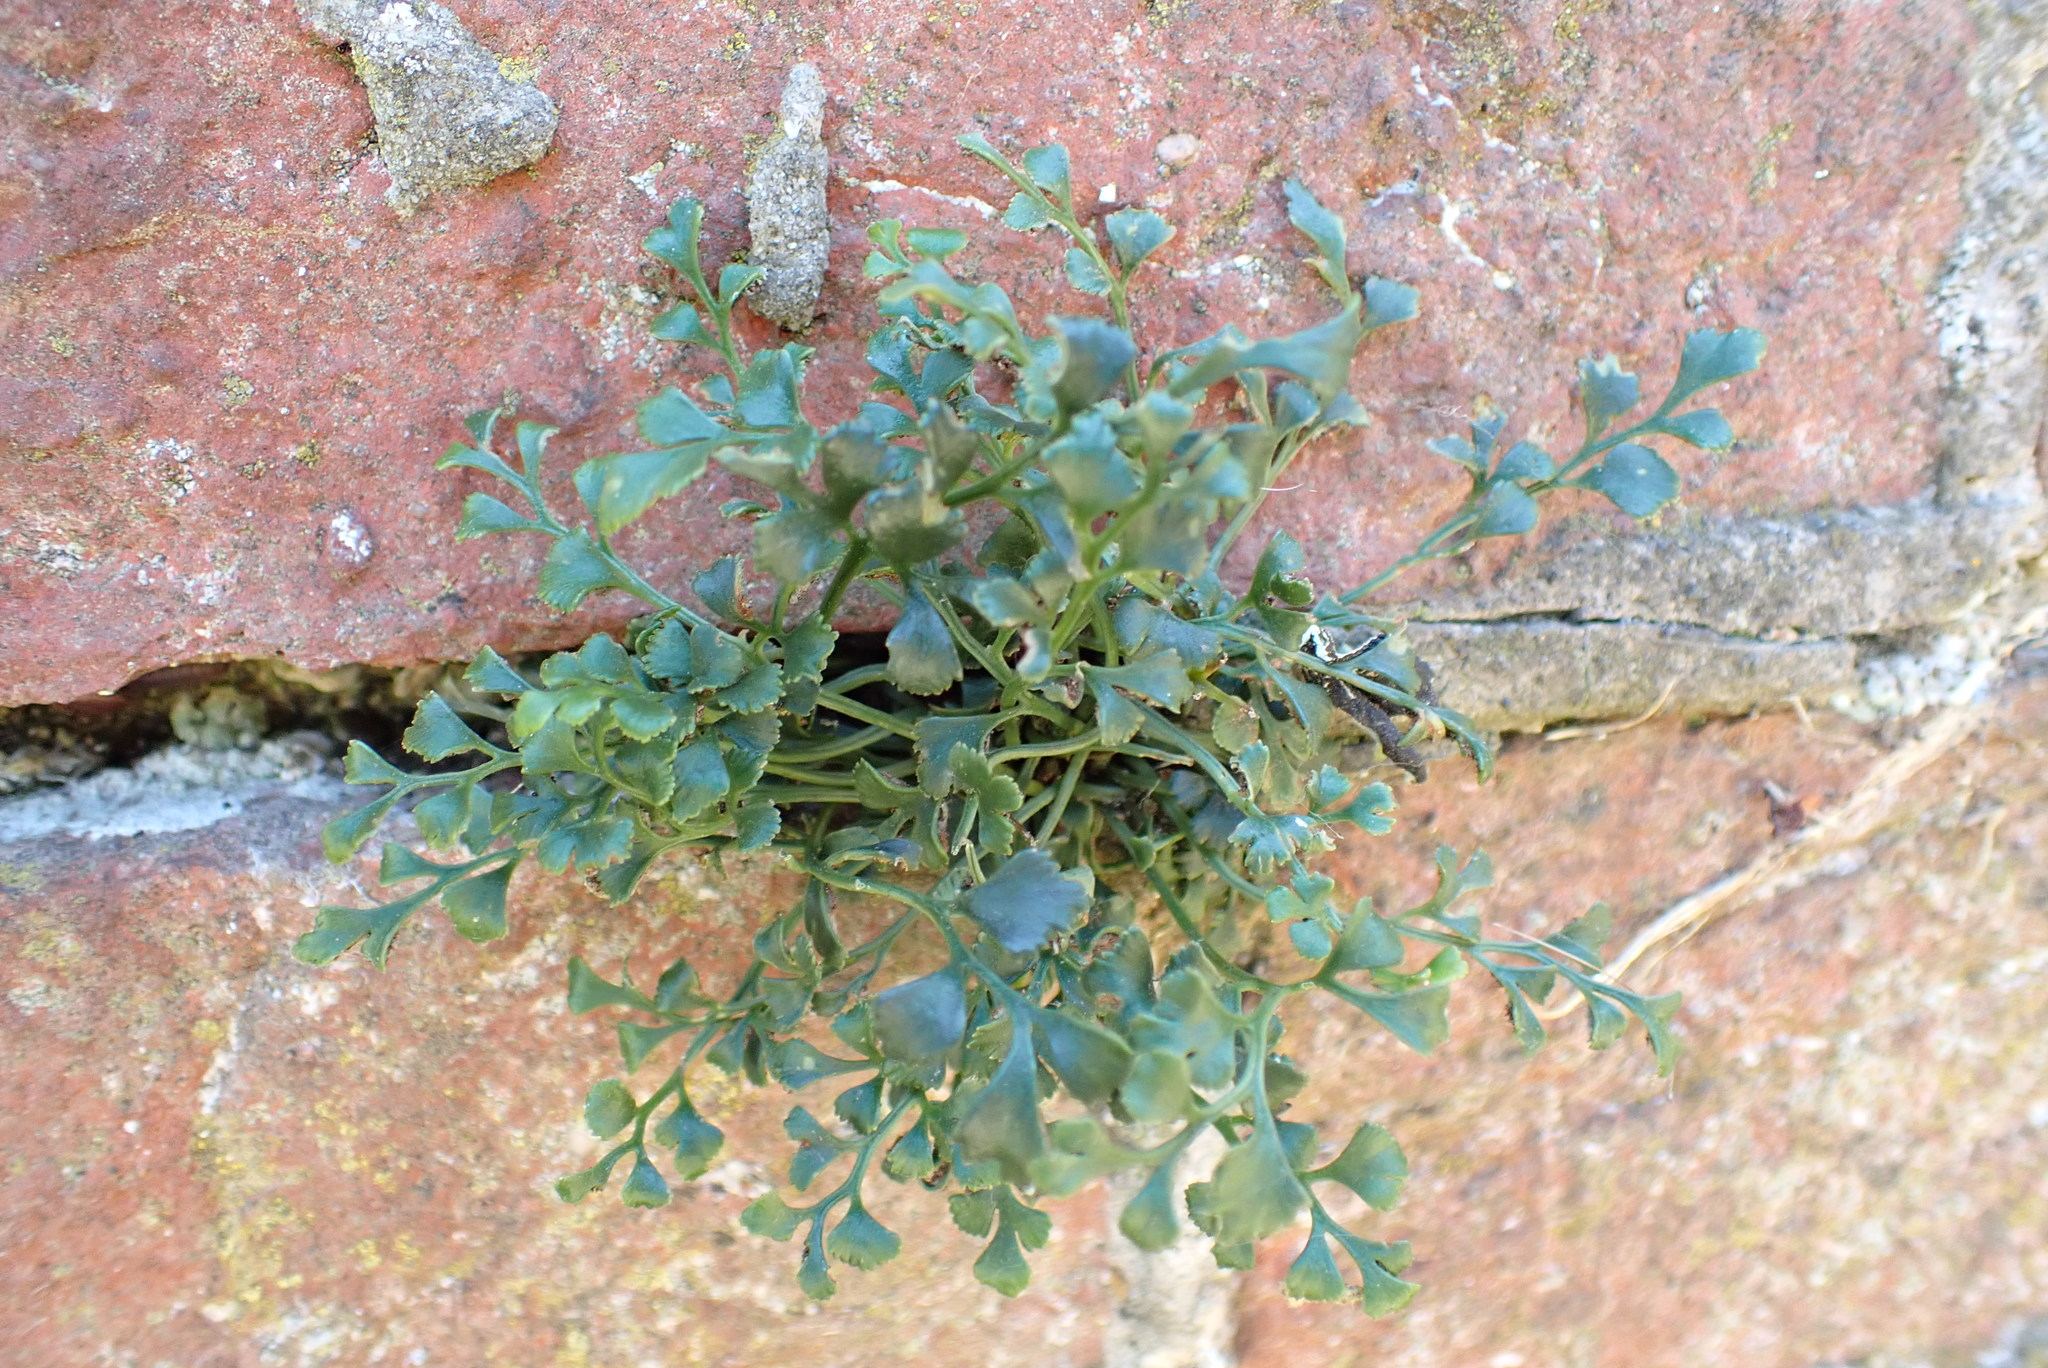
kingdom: Plantae
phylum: Tracheophyta
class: Polypodiopsida
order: Polypodiales
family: Aspleniaceae
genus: Asplenium
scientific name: Asplenium ruta-muraria
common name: Wall-rue
